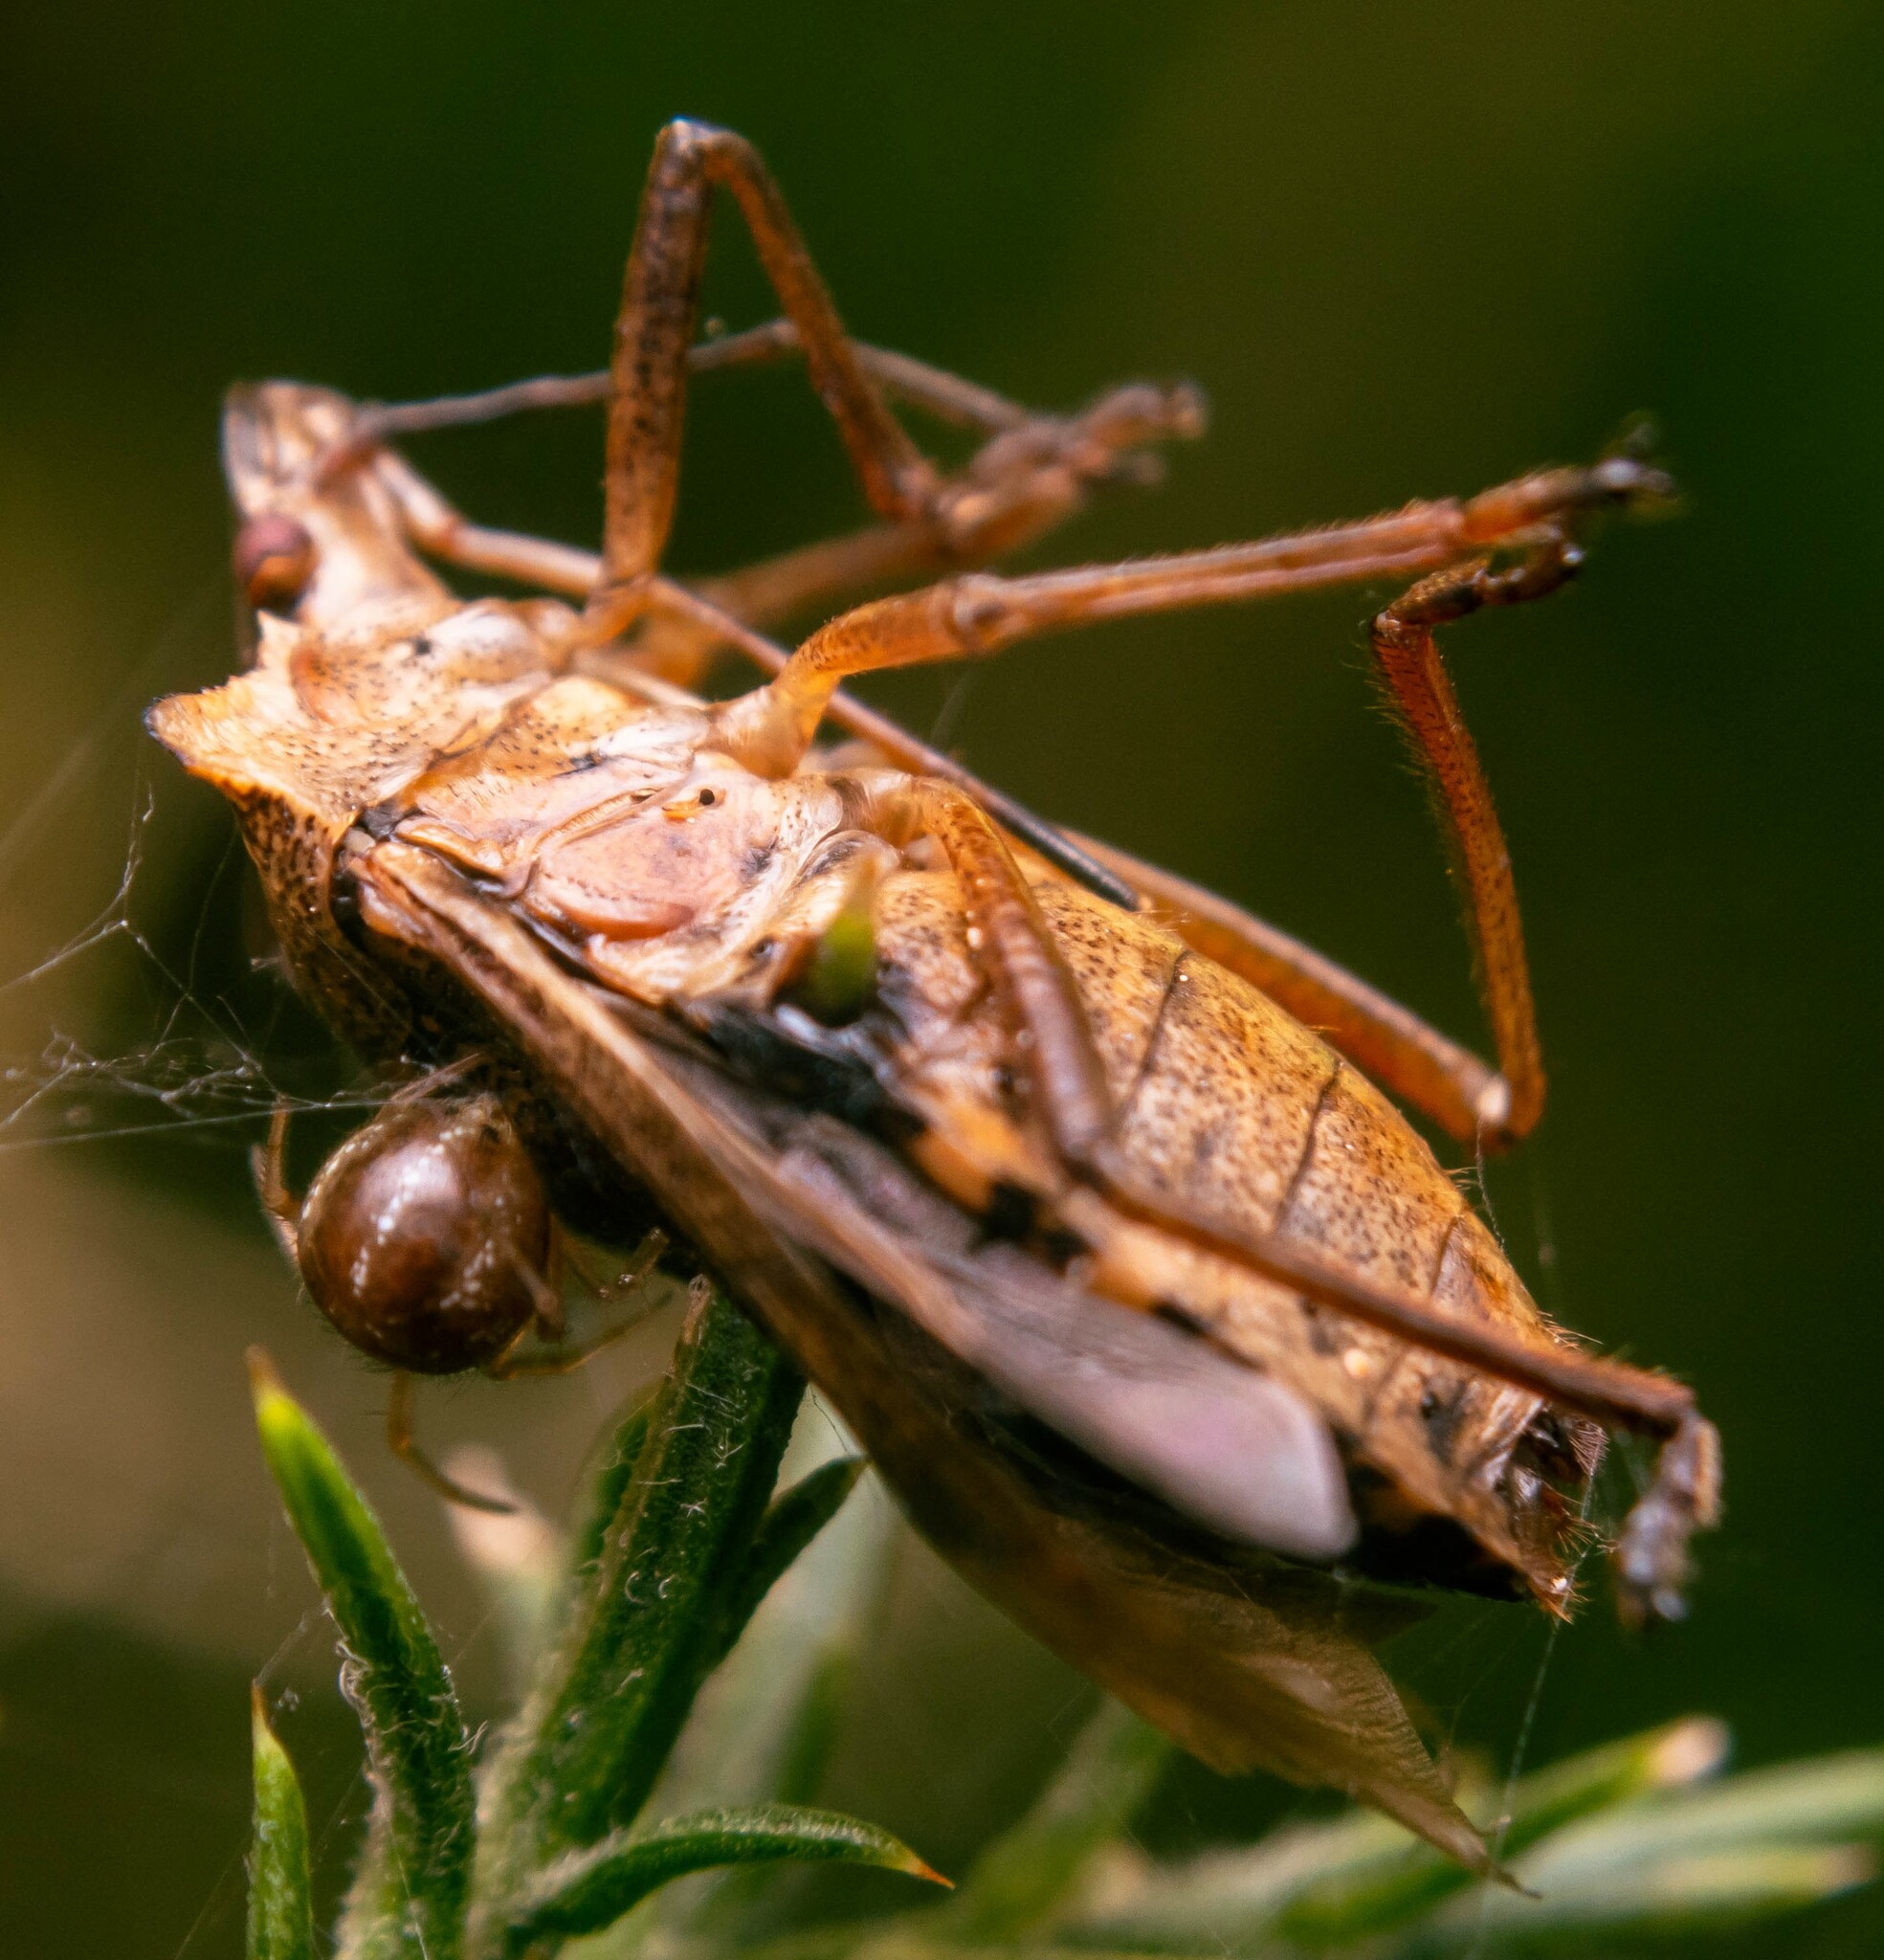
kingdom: Animalia
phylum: Arthropoda
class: Insecta
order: Hemiptera
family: Pentatomidae
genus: Pentatoma
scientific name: Pentatoma rufipes
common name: Forest bug
